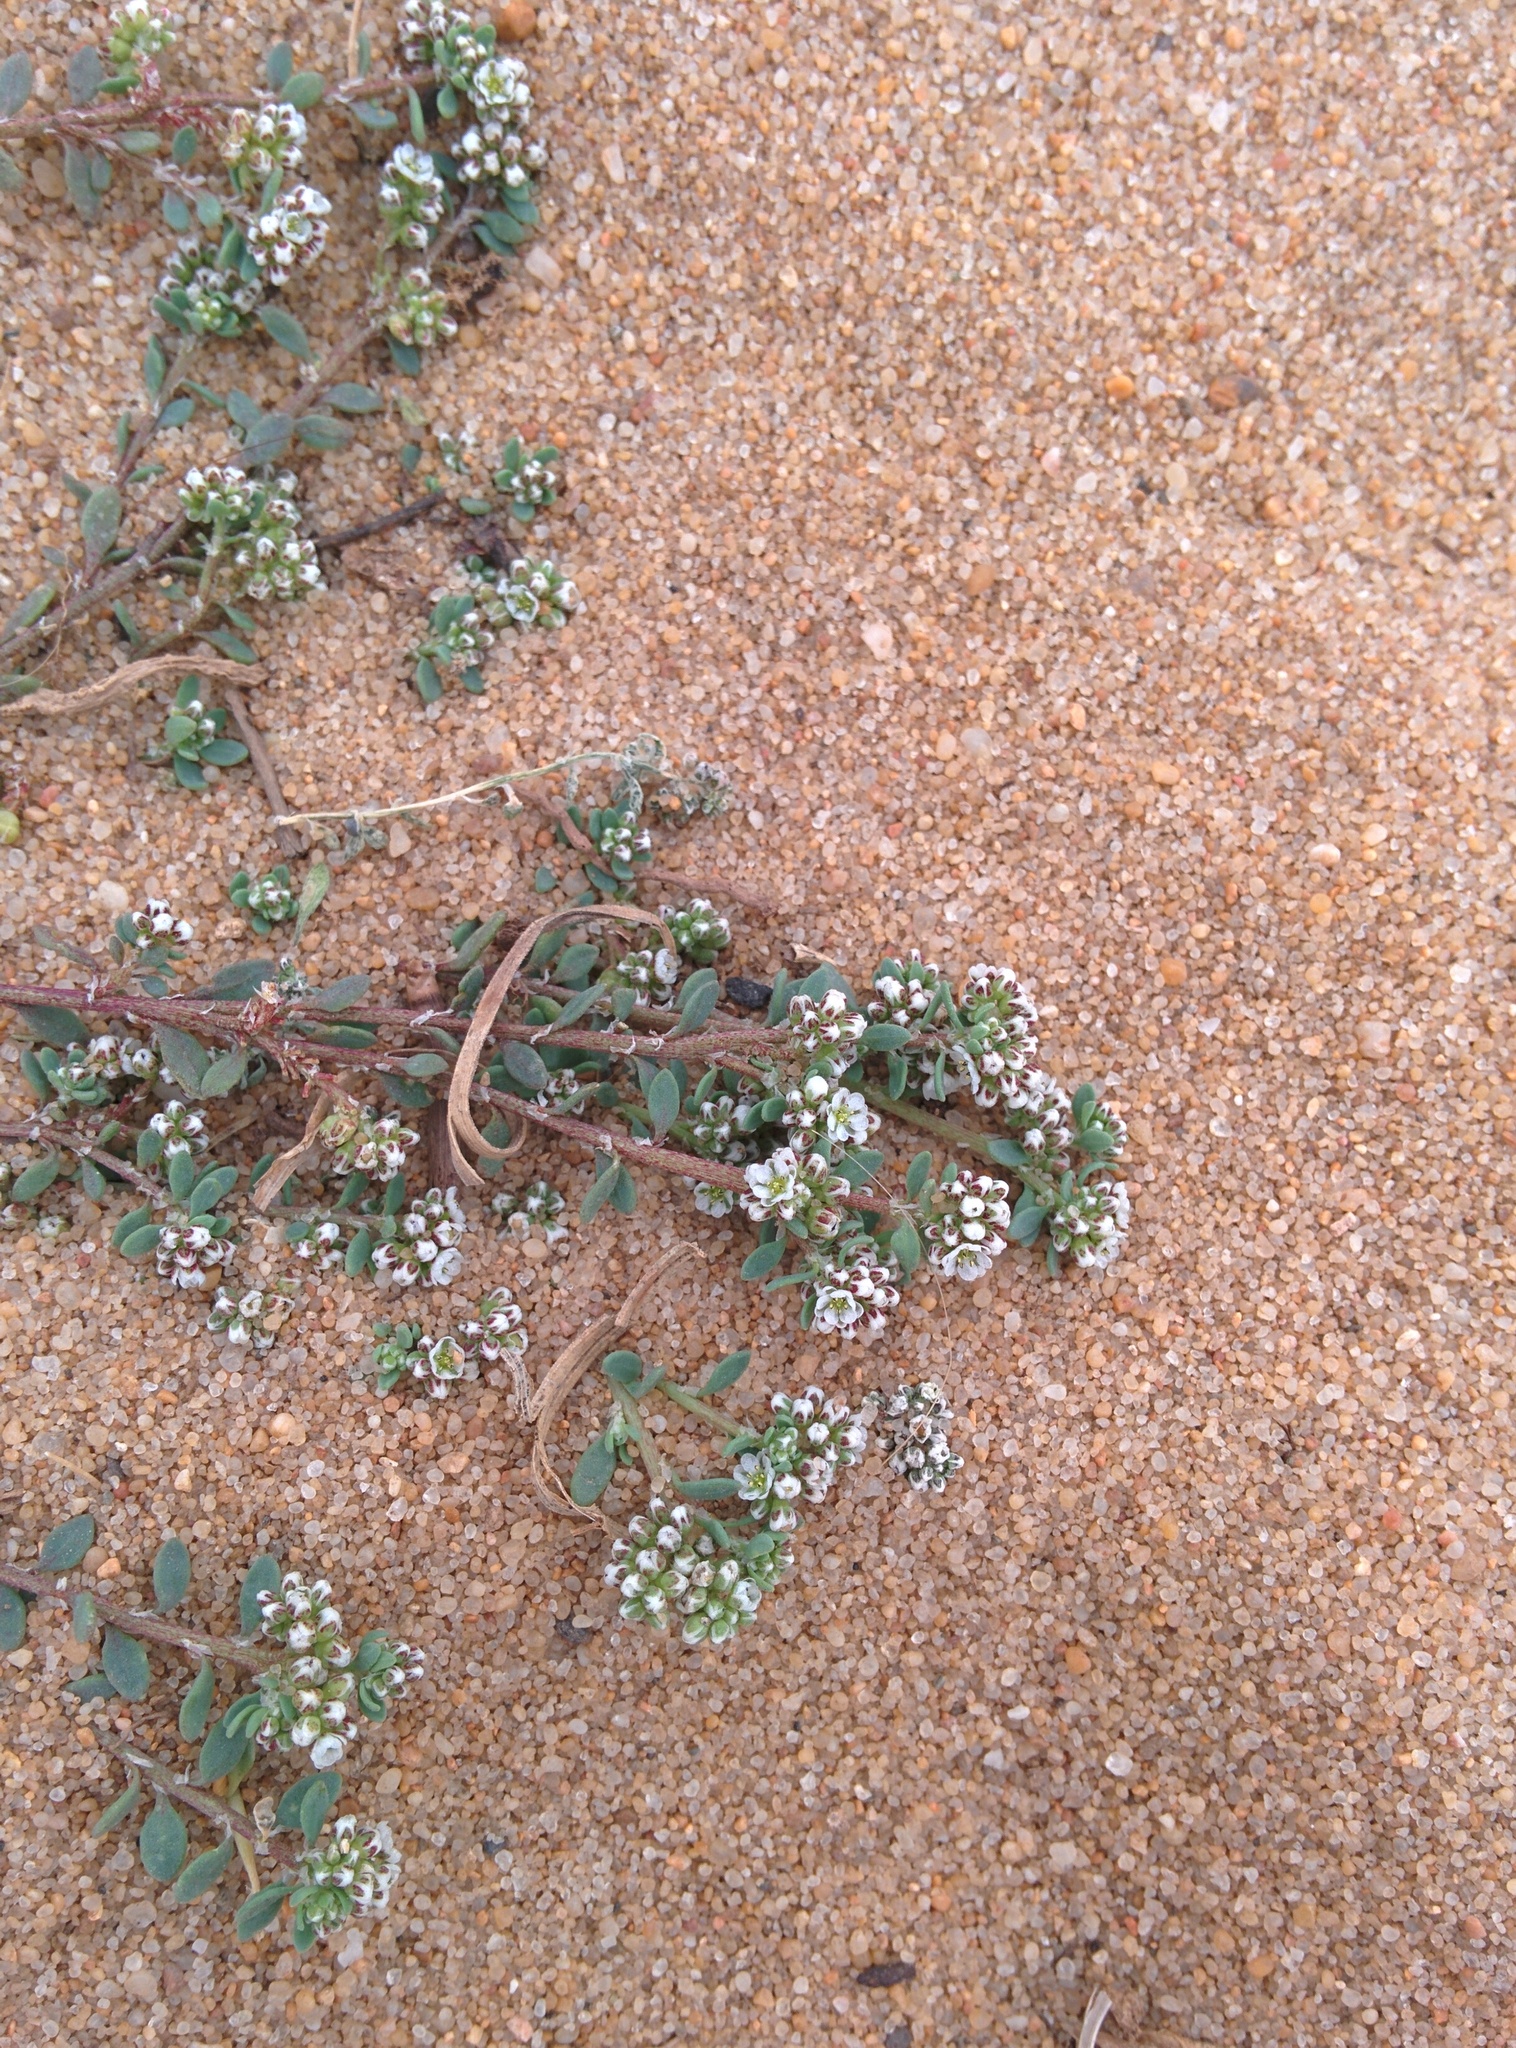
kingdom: Plantae
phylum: Tracheophyta
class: Magnoliopsida
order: Caryophyllales
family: Caryophyllaceae
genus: Corrigiola
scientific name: Corrigiola litoralis
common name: Strapwort
